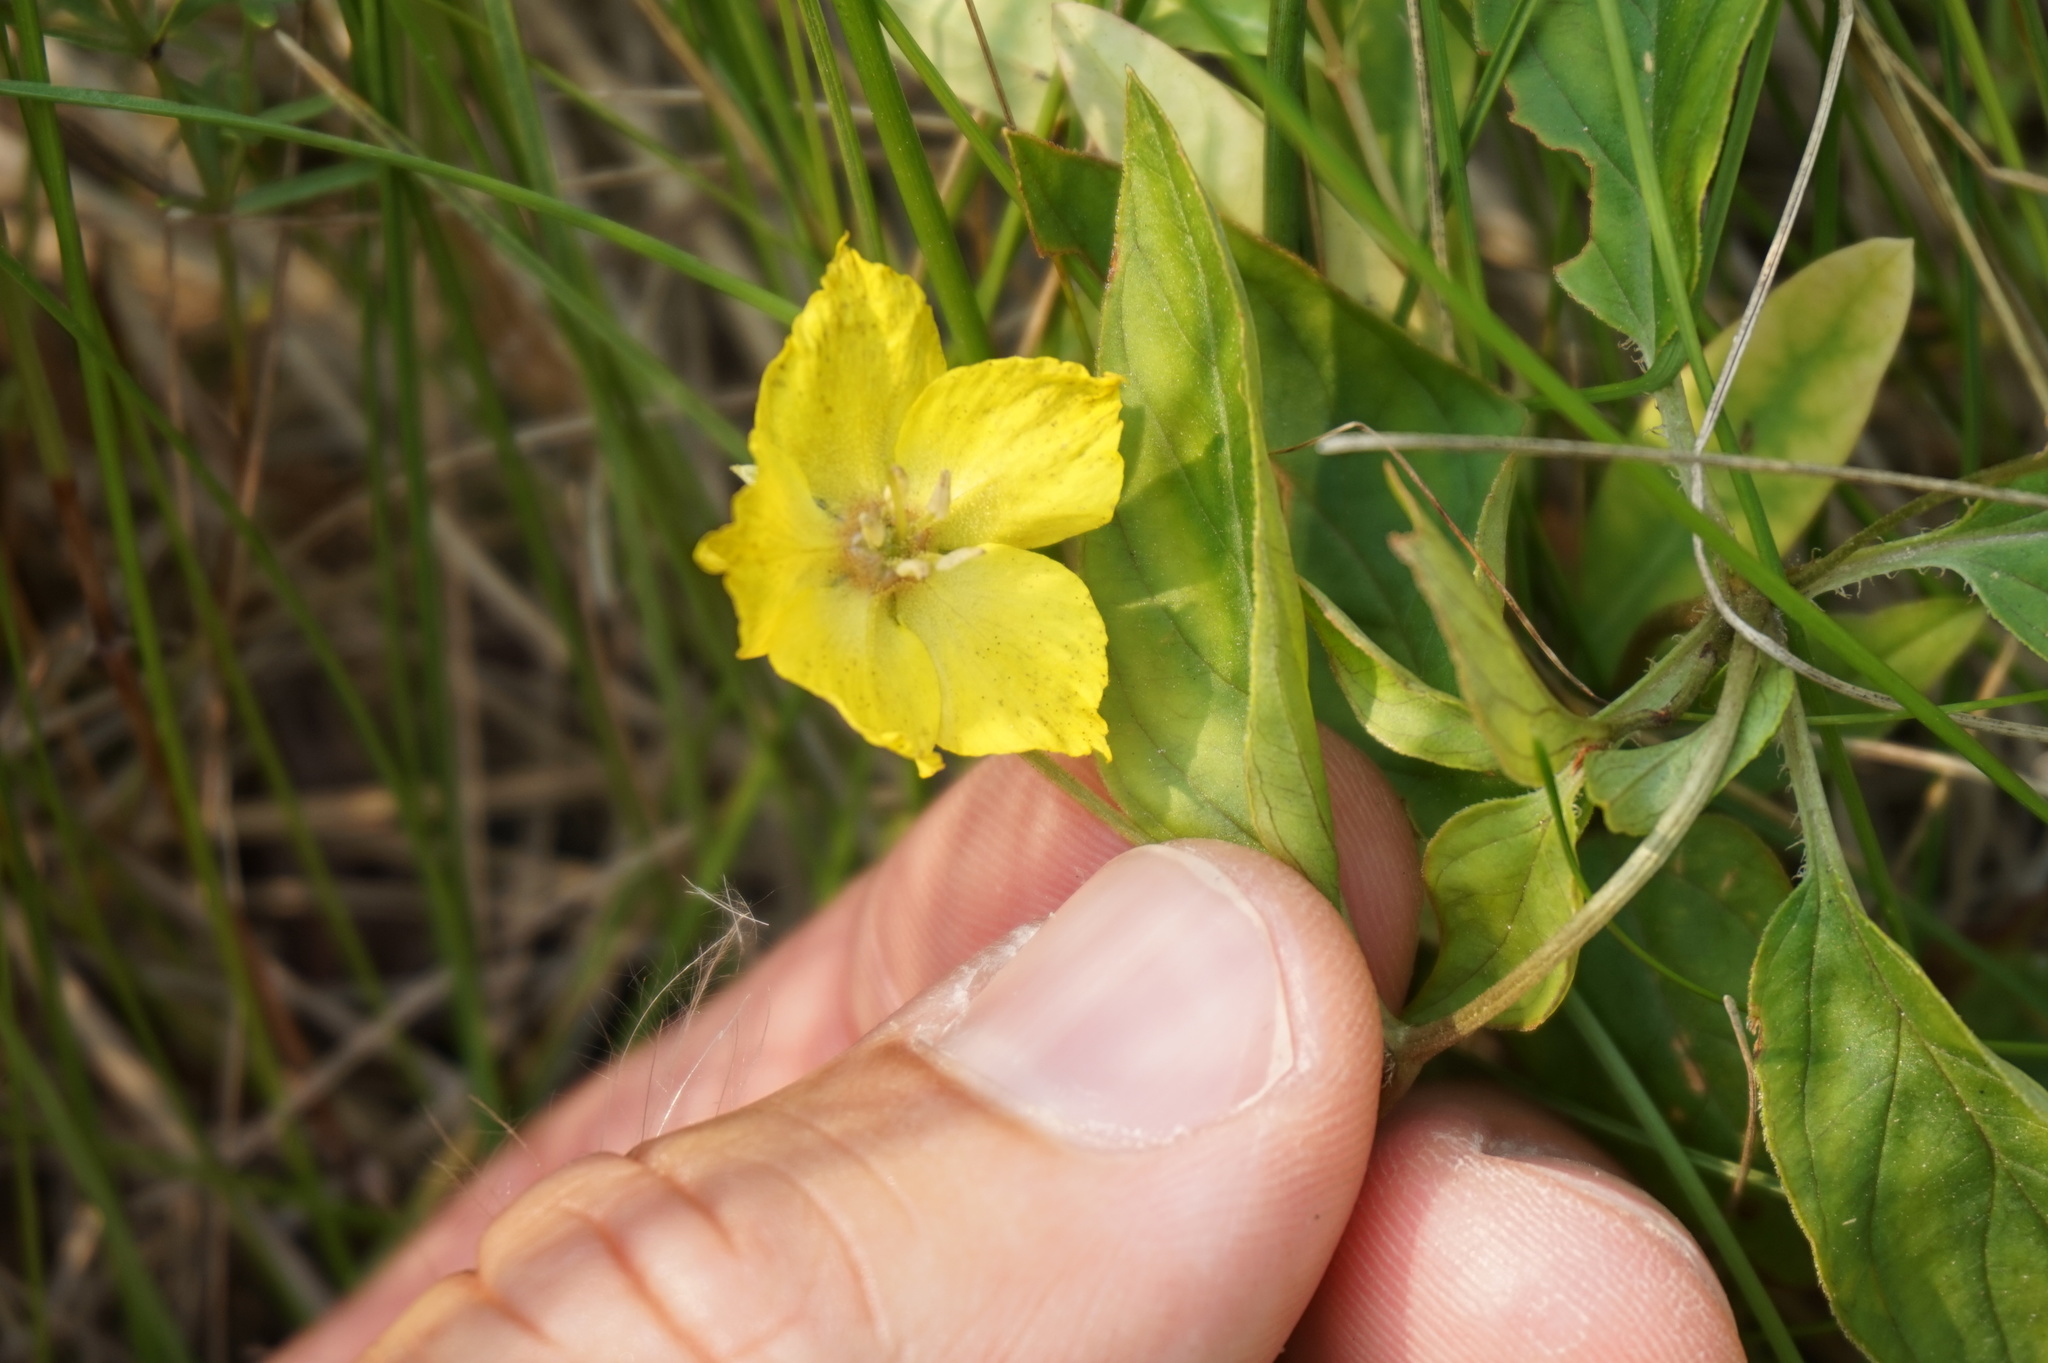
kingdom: Plantae
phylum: Tracheophyta
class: Magnoliopsida
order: Ericales
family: Primulaceae
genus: Lysimachia
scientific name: Lysimachia ciliata
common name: Fringed loosestrife
